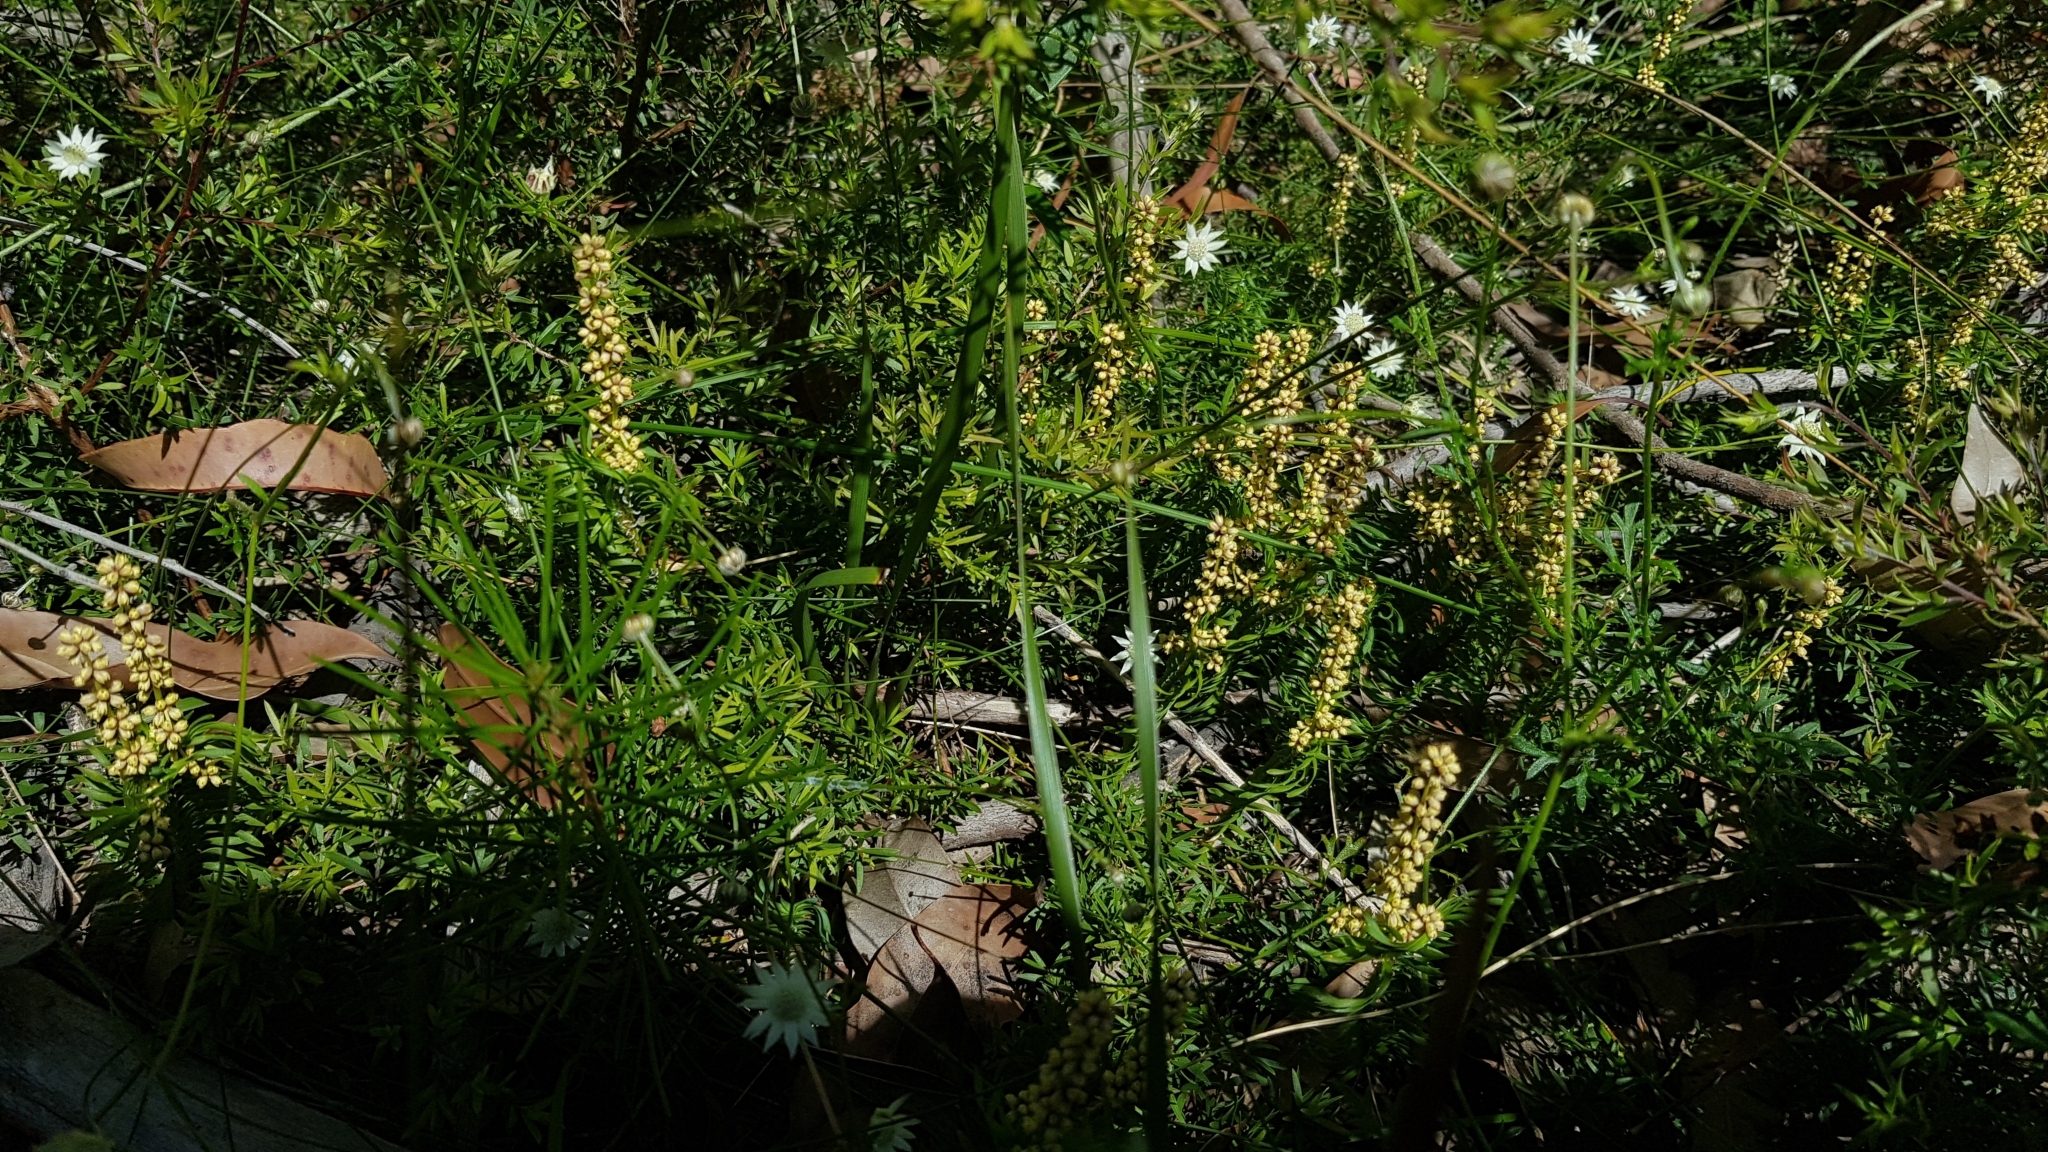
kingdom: Plantae
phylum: Tracheophyta
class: Liliopsida
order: Asparagales
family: Asparagaceae
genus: Lomandra
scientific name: Lomandra obliqua
